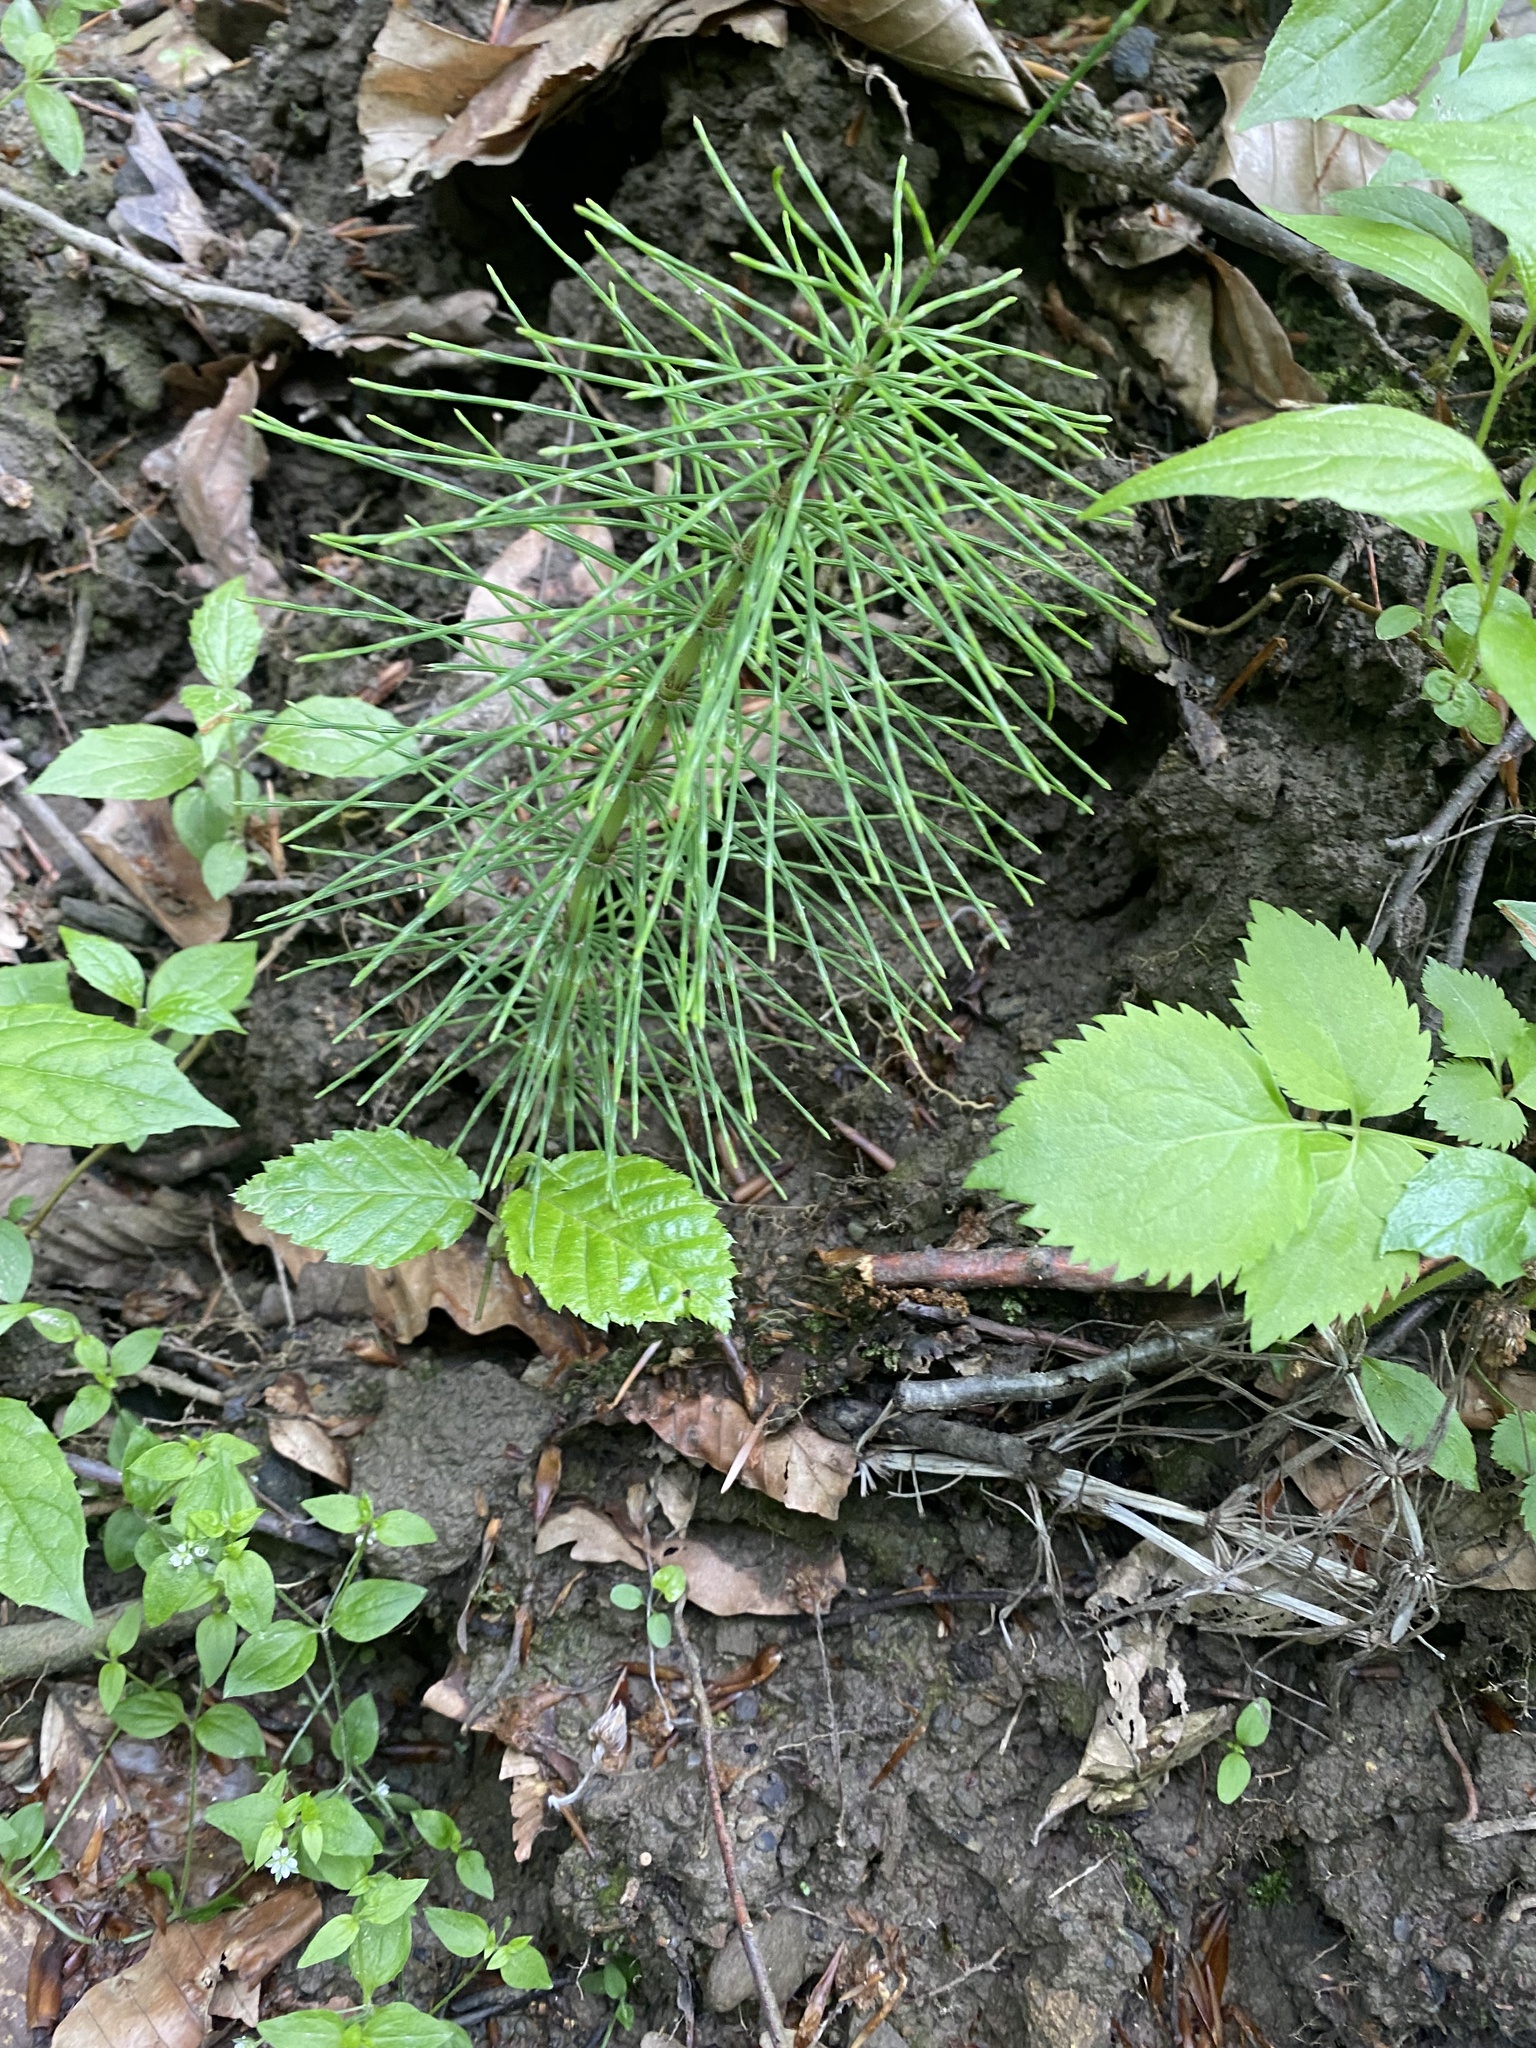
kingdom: Plantae
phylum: Tracheophyta
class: Polypodiopsida
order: Equisetales
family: Equisetaceae
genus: Equisetum
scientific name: Equisetum telmateia
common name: Great horsetail
